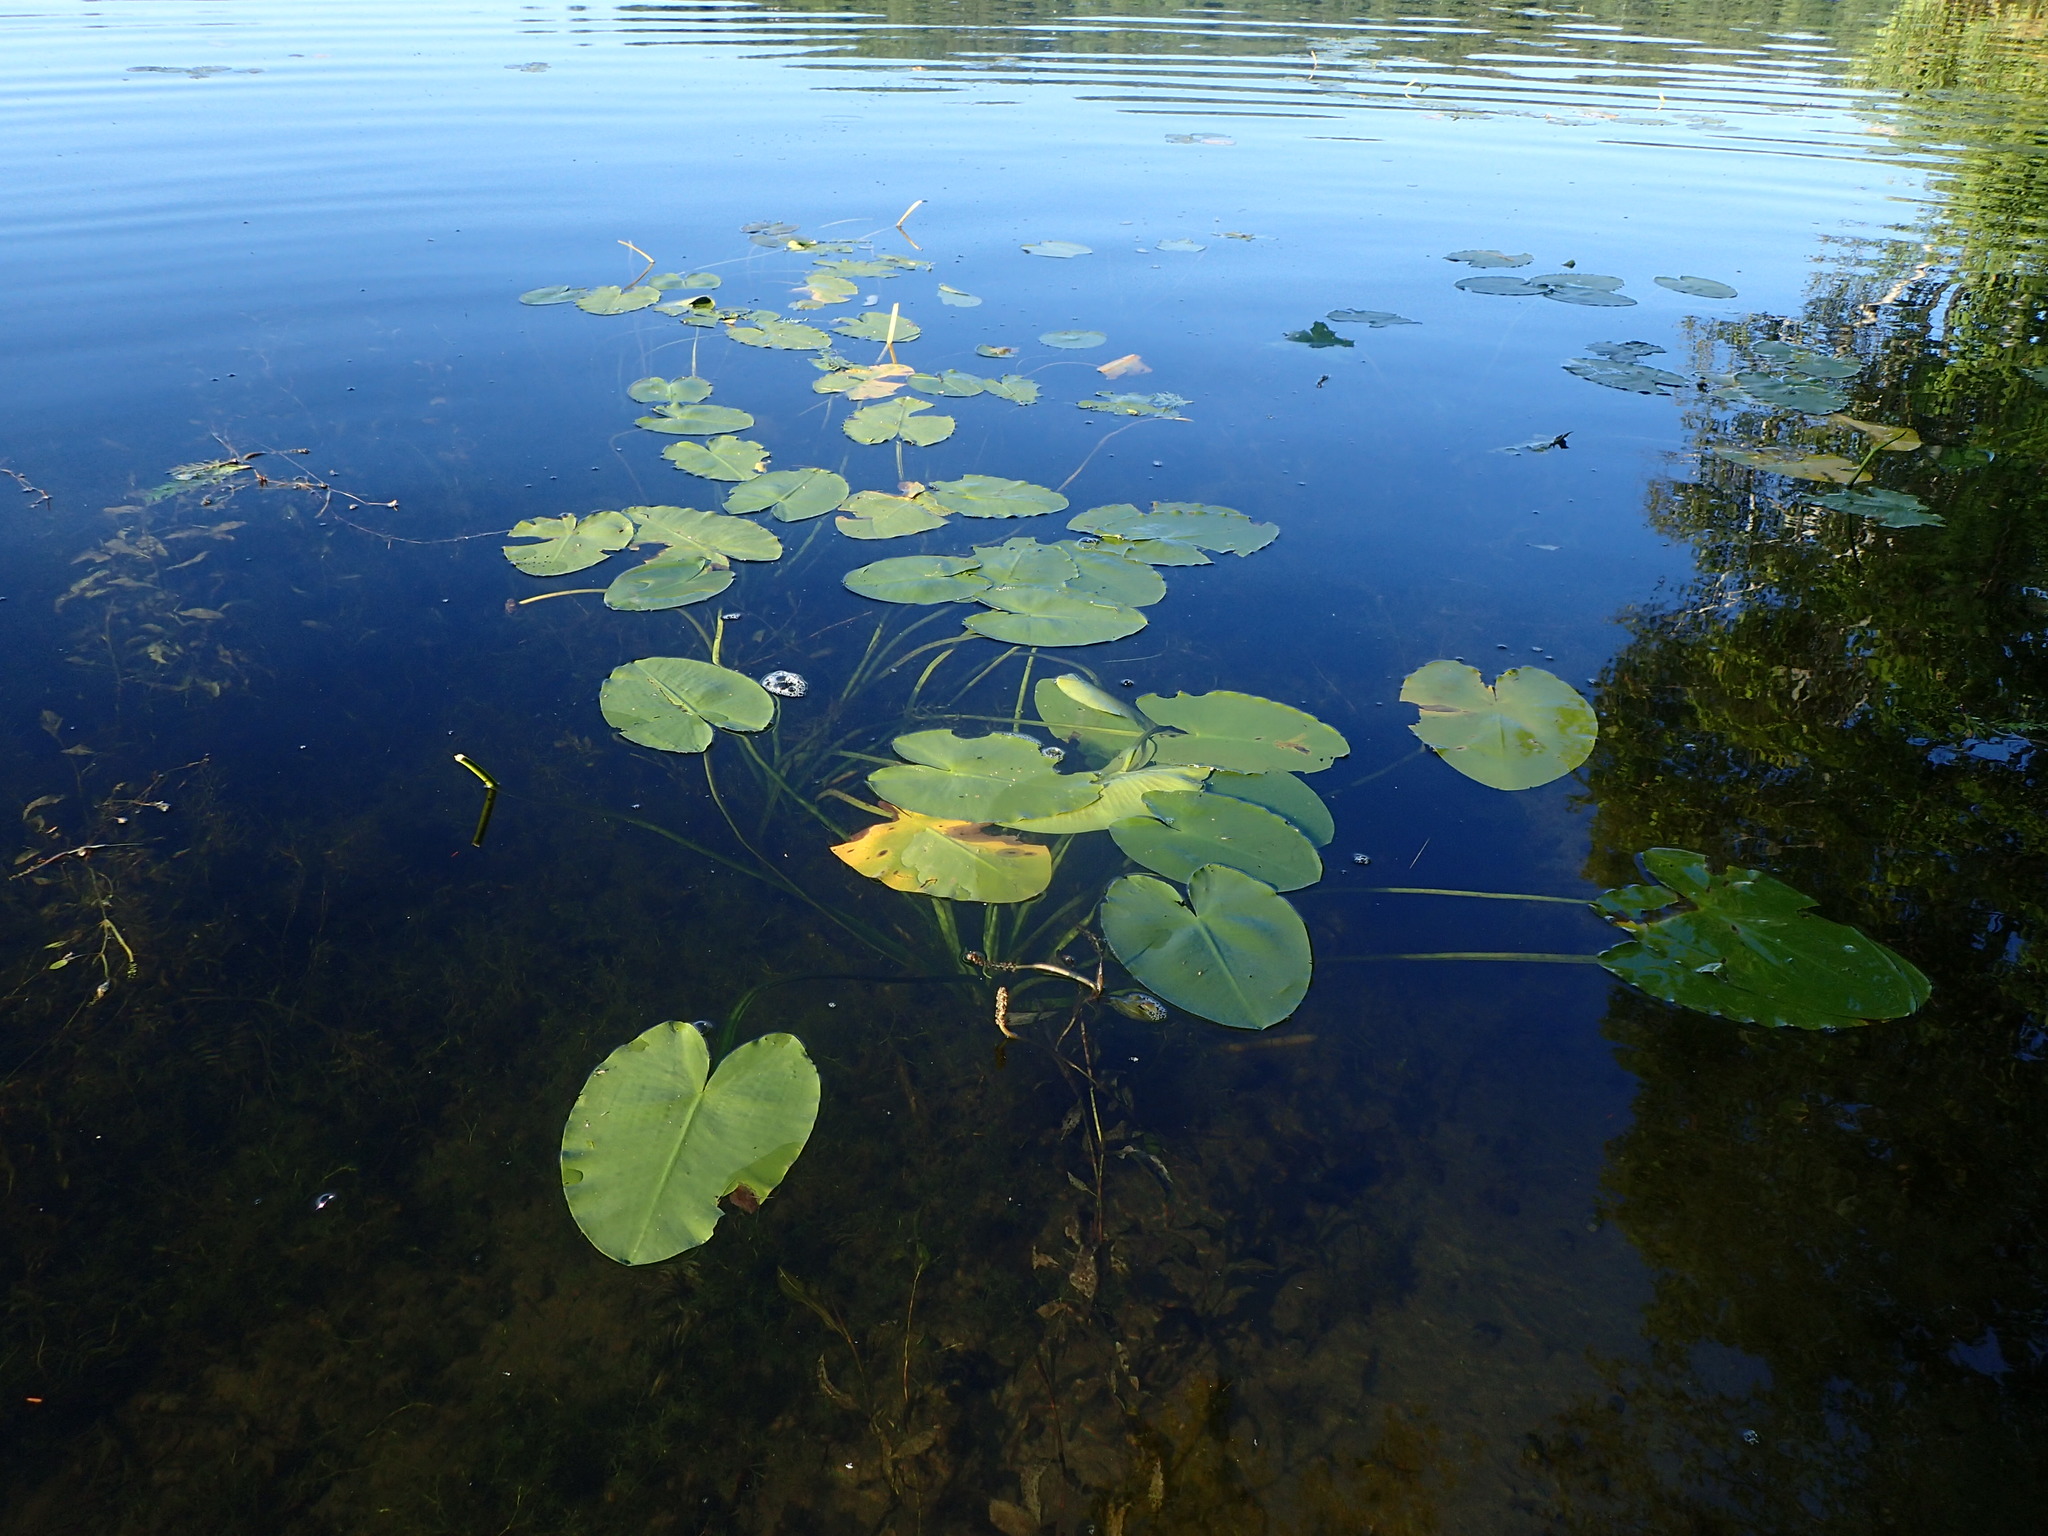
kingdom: Plantae
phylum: Tracheophyta
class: Magnoliopsida
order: Nymphaeales
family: Nymphaeaceae
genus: Nuphar
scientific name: Nuphar variegata
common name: Beaver-root
